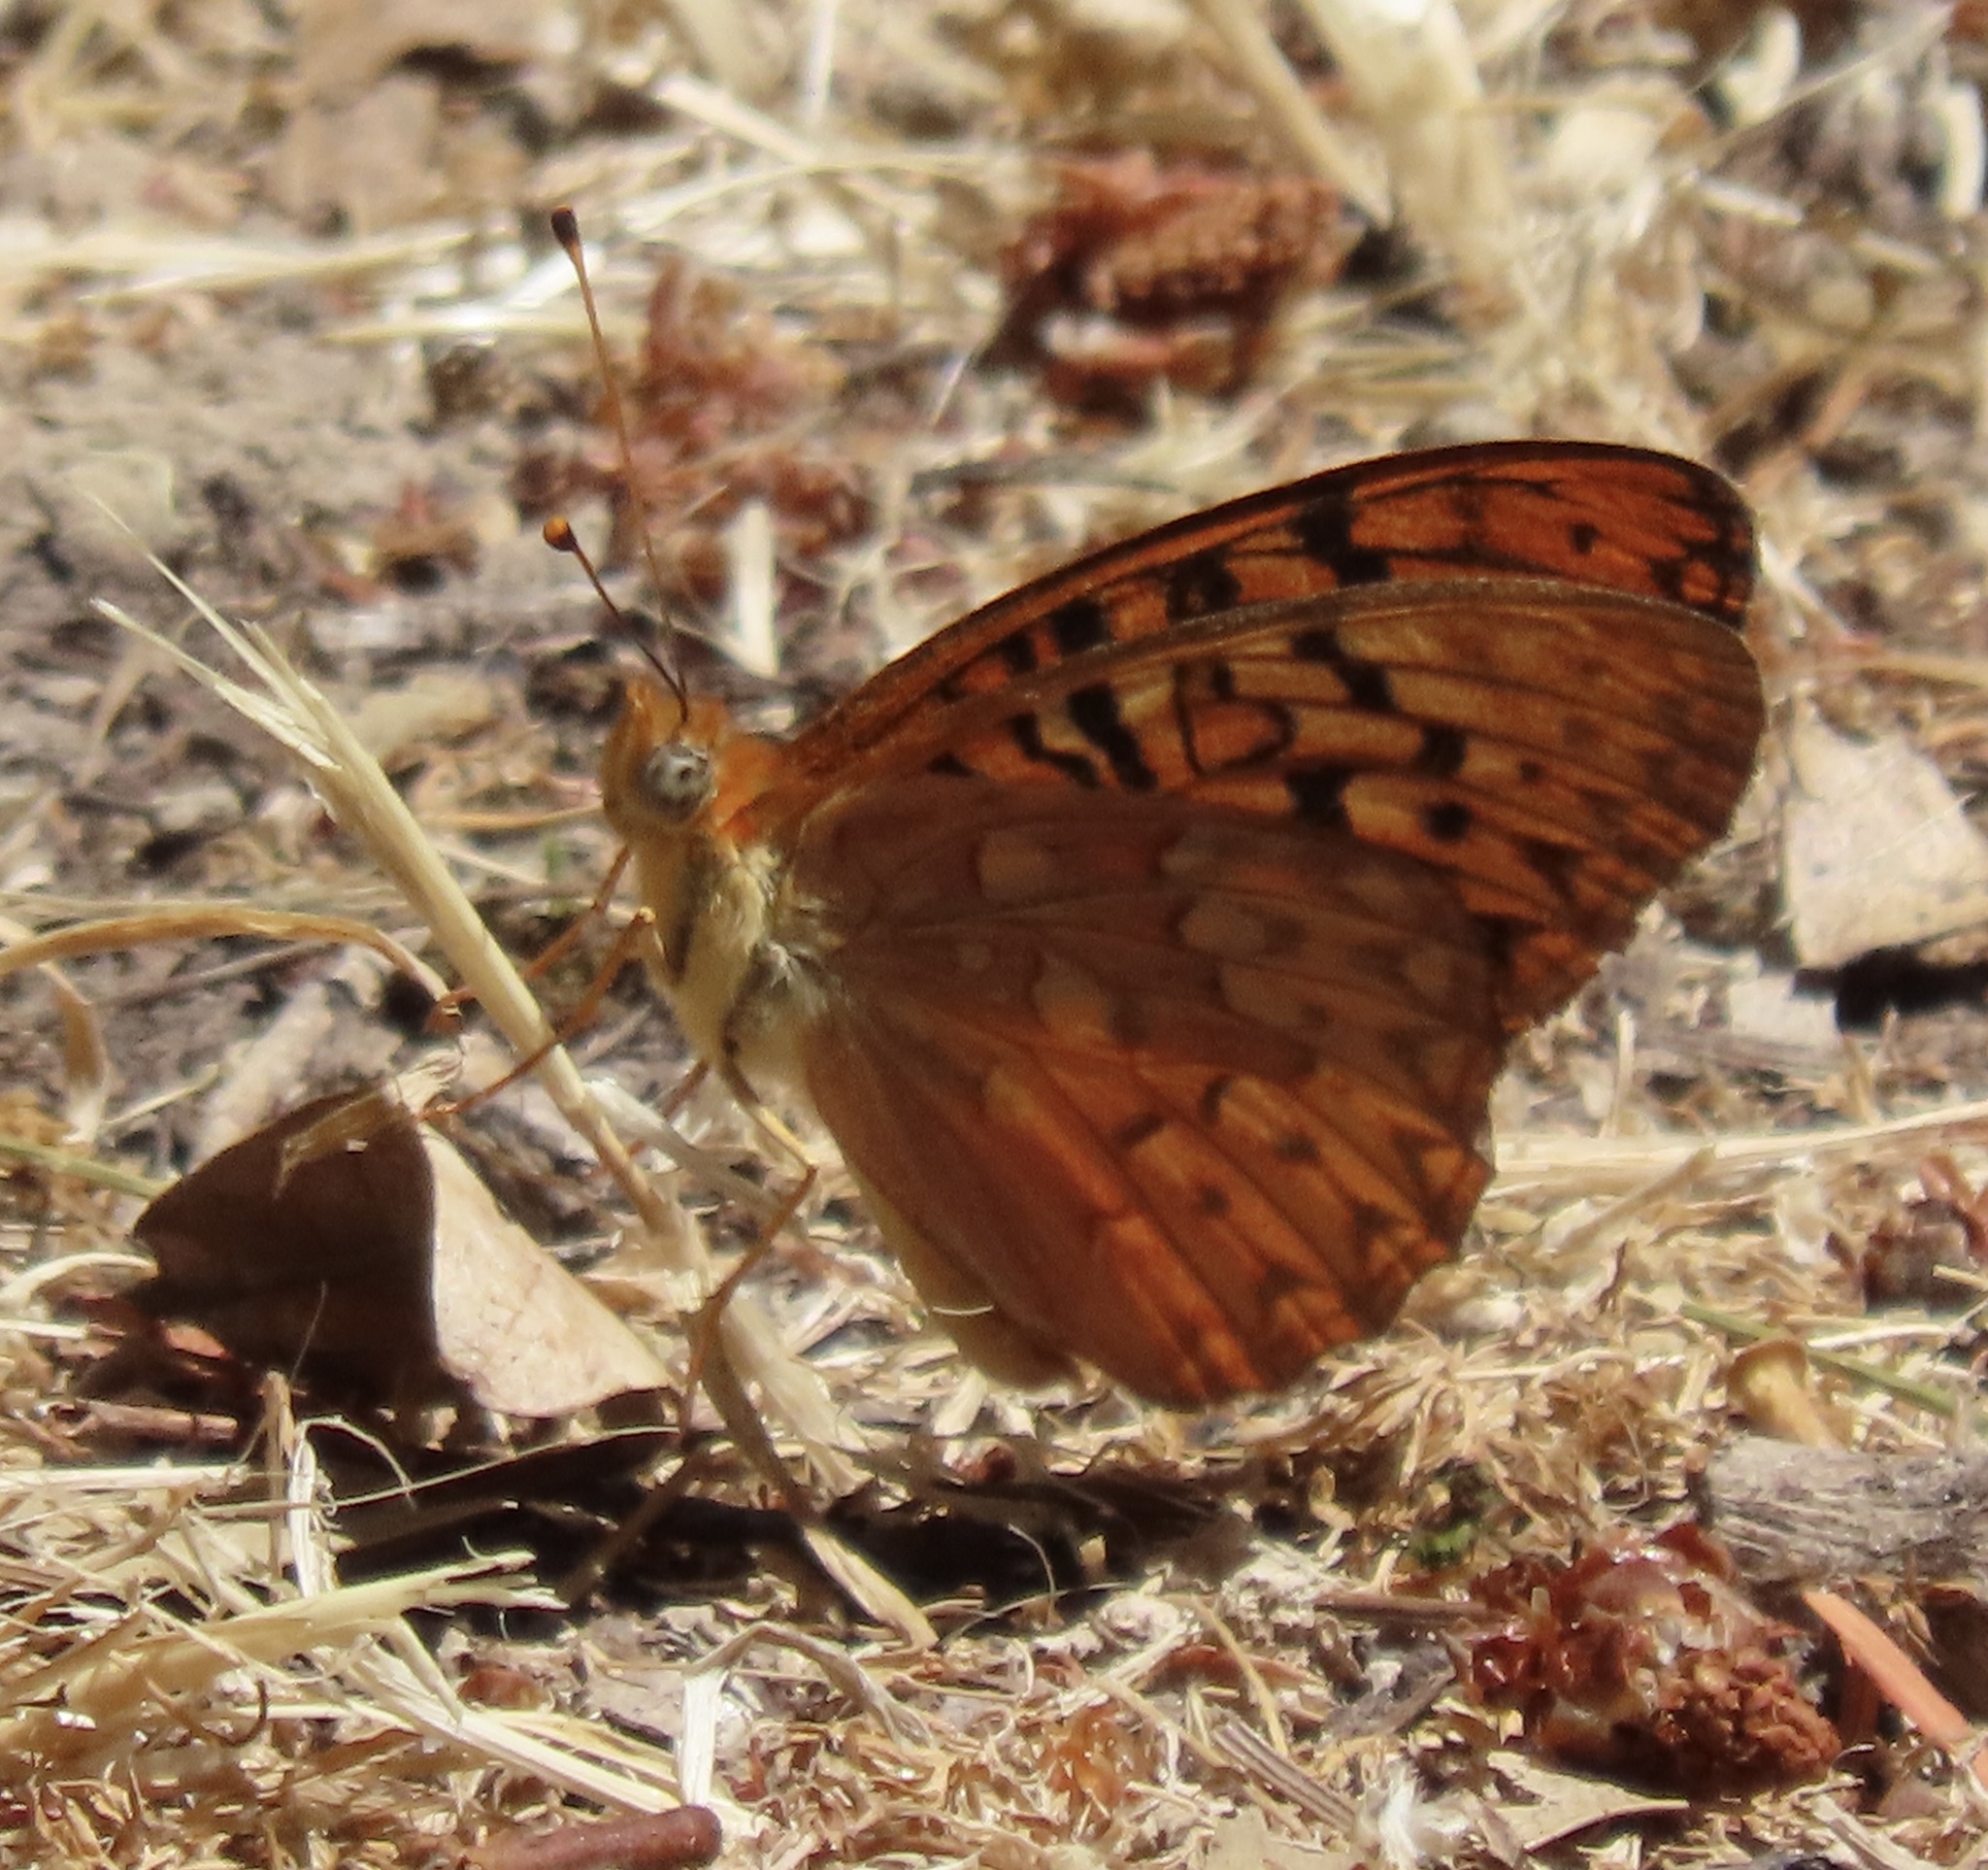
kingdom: Animalia
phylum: Arthropoda
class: Insecta
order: Lepidoptera
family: Nymphalidae
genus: Speyeria
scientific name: Speyeria adiaste
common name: Unsilvered fritillary
